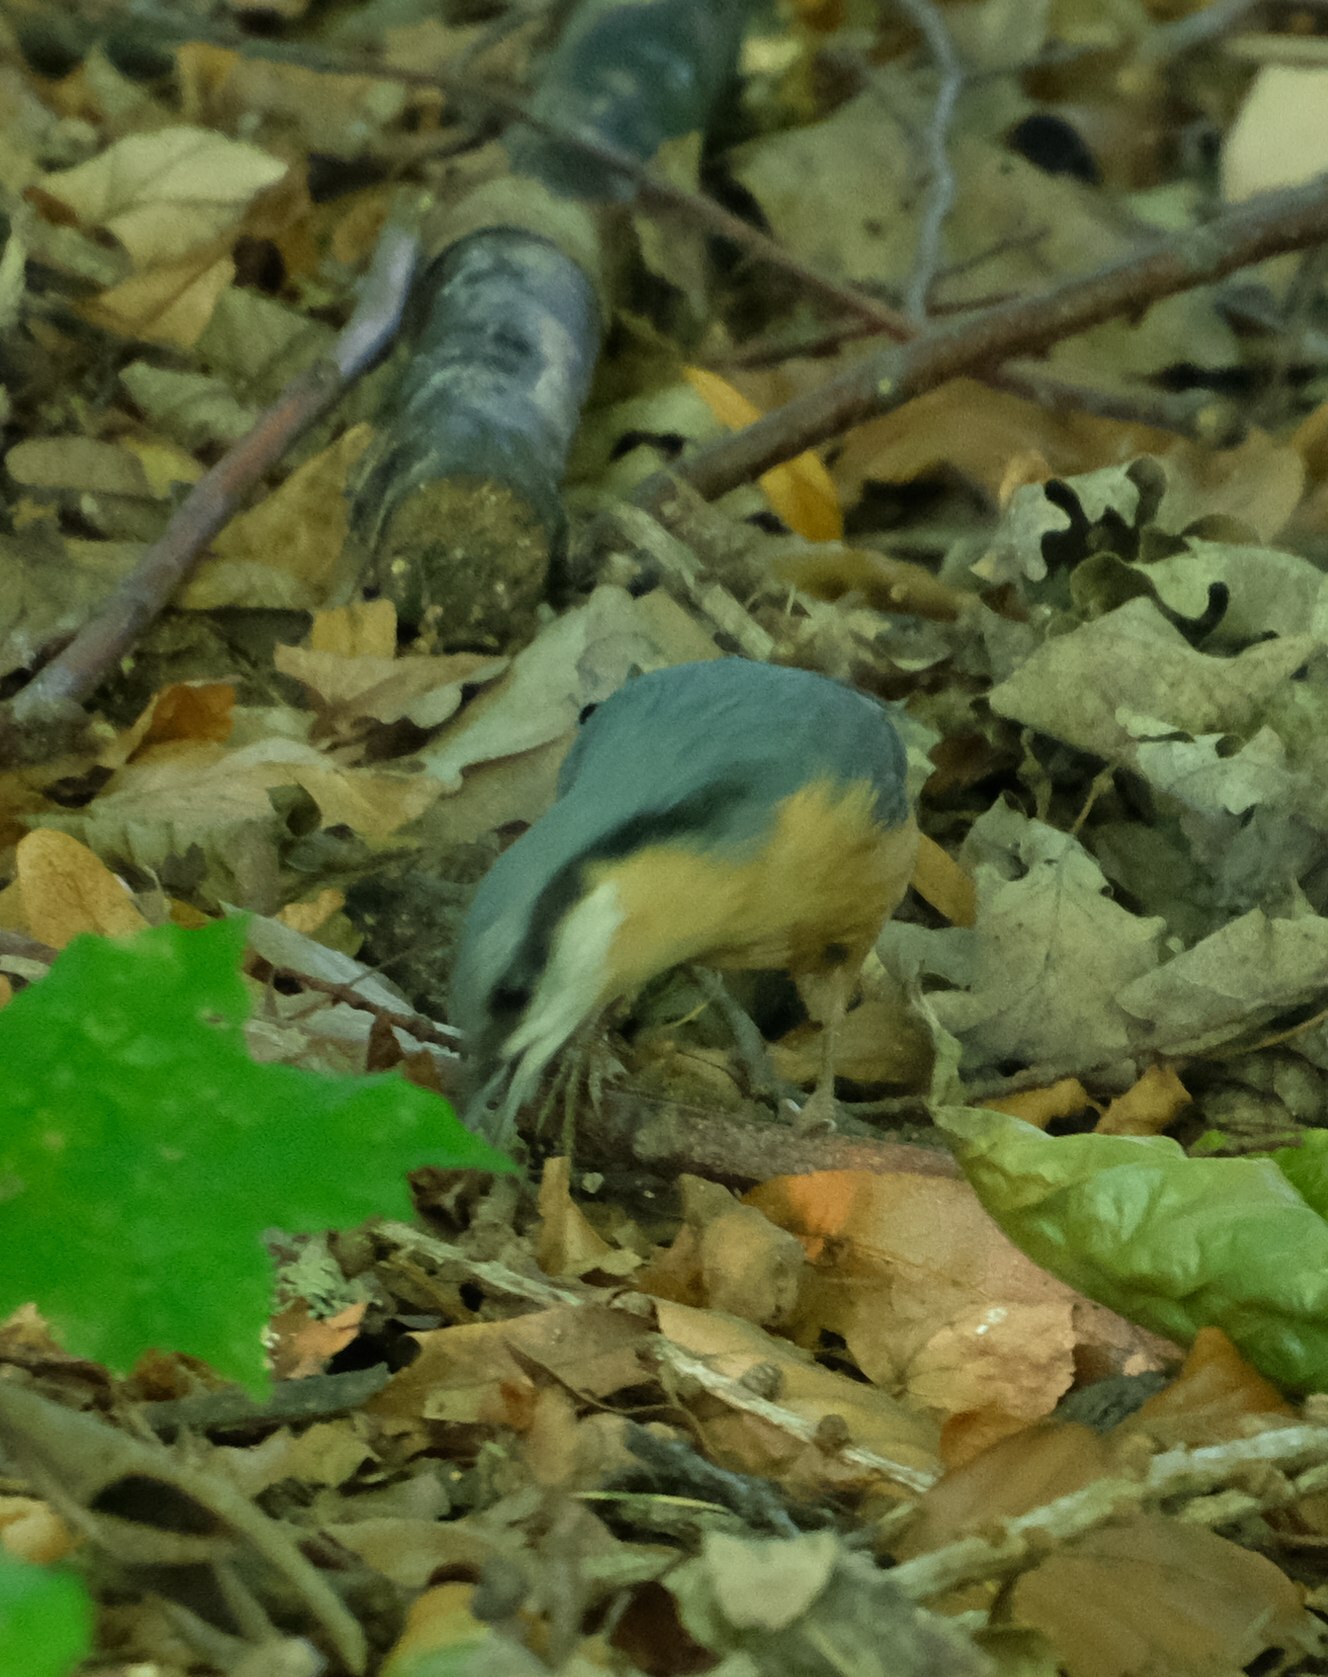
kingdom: Animalia
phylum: Chordata
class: Aves
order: Passeriformes
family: Sittidae
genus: Sitta
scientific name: Sitta europaea
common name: Eurasian nuthatch
